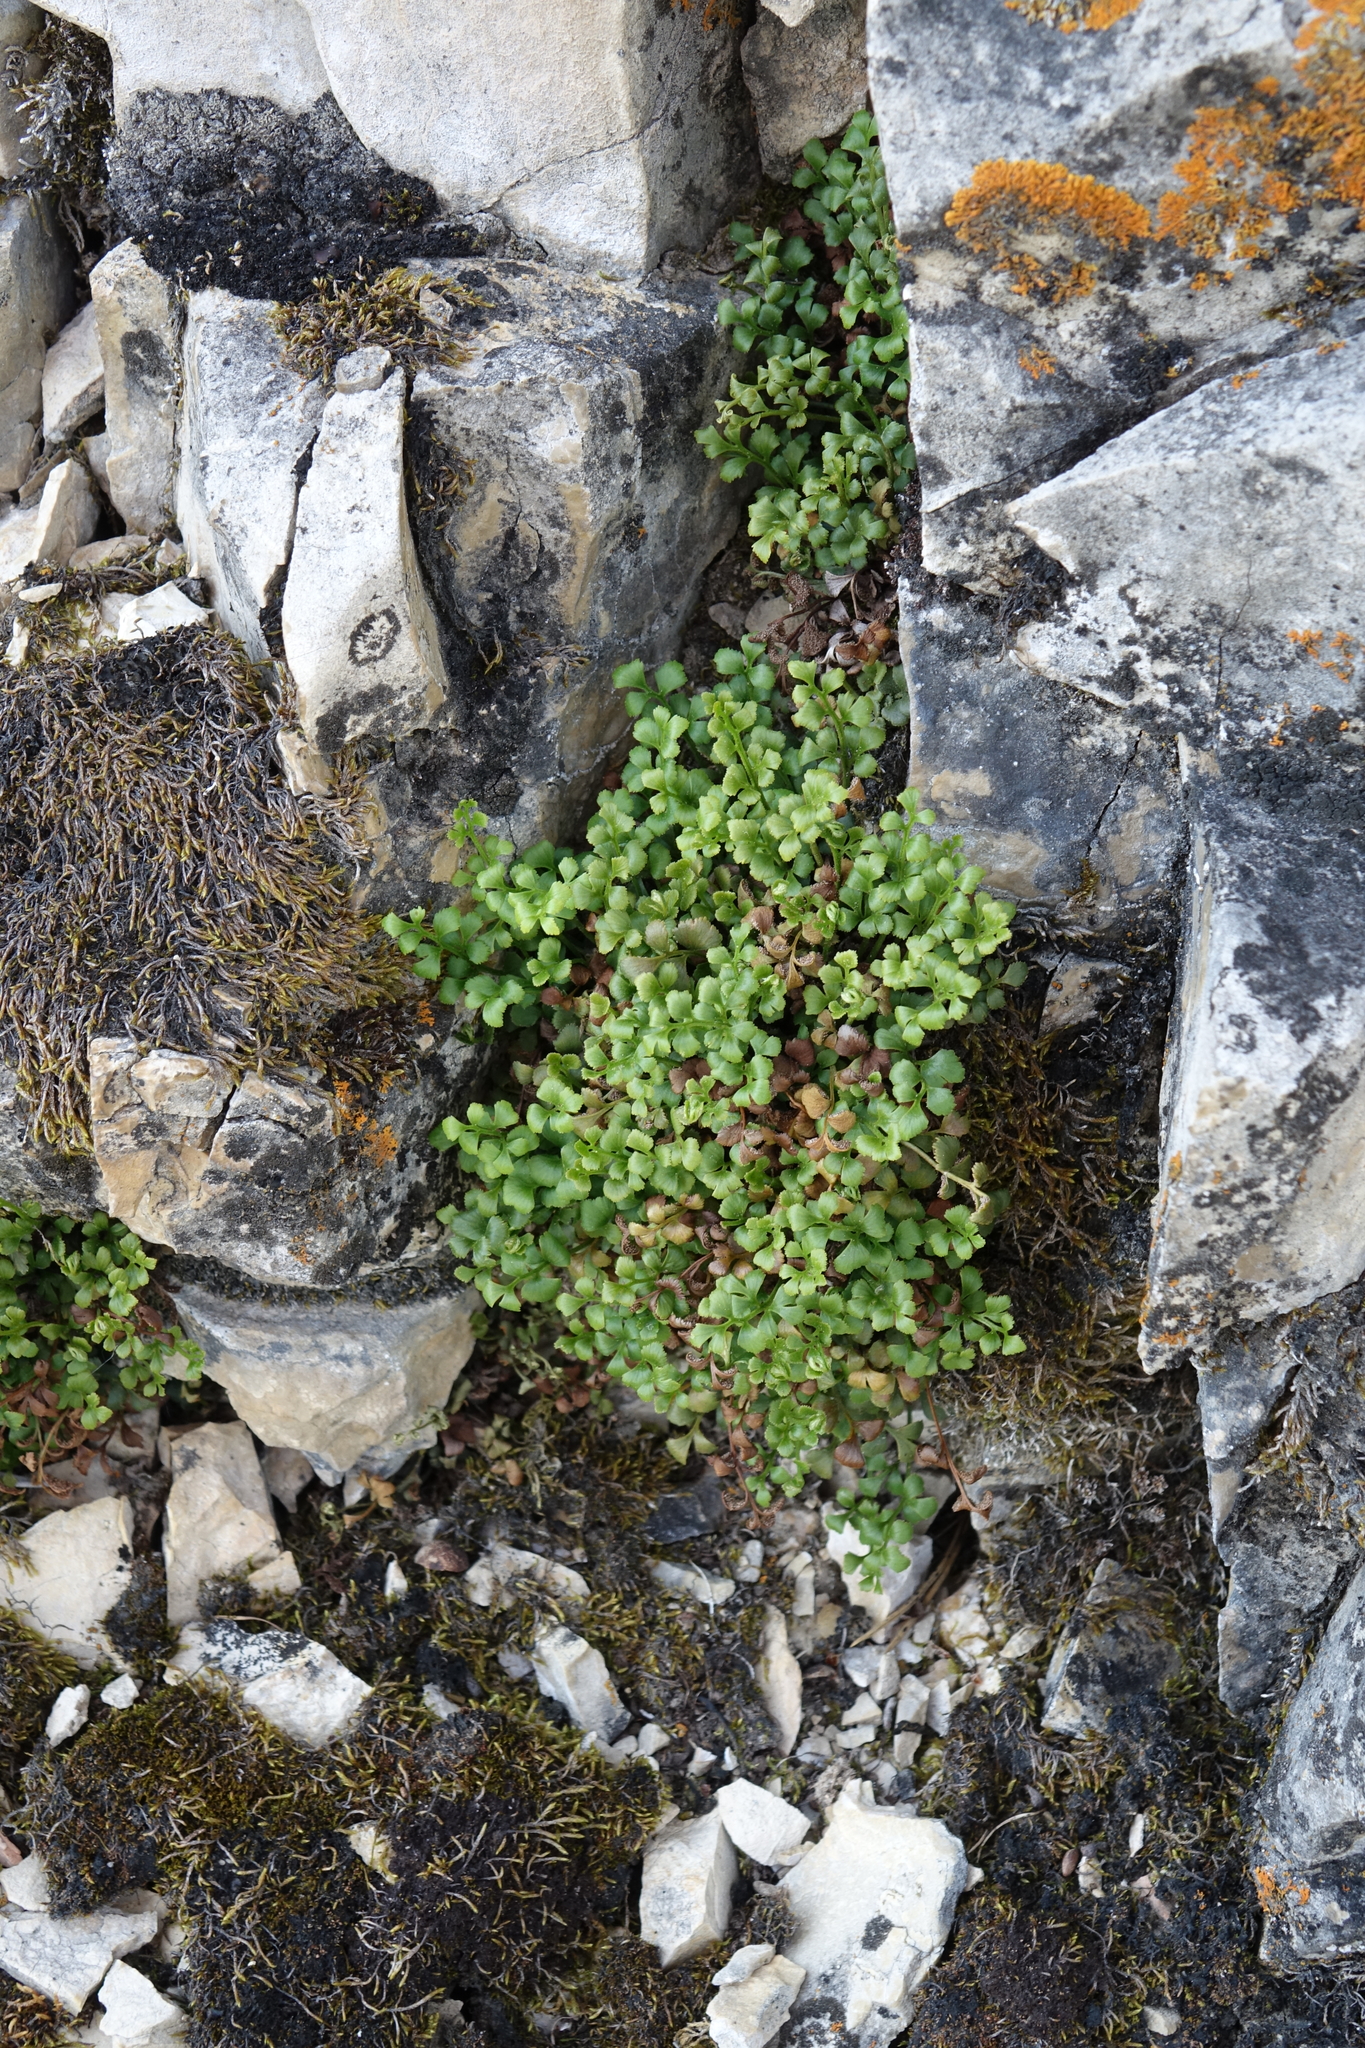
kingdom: Plantae
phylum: Tracheophyta
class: Polypodiopsida
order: Polypodiales
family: Aspleniaceae
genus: Asplenium
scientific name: Asplenium ruta-muraria
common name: Wall-rue
